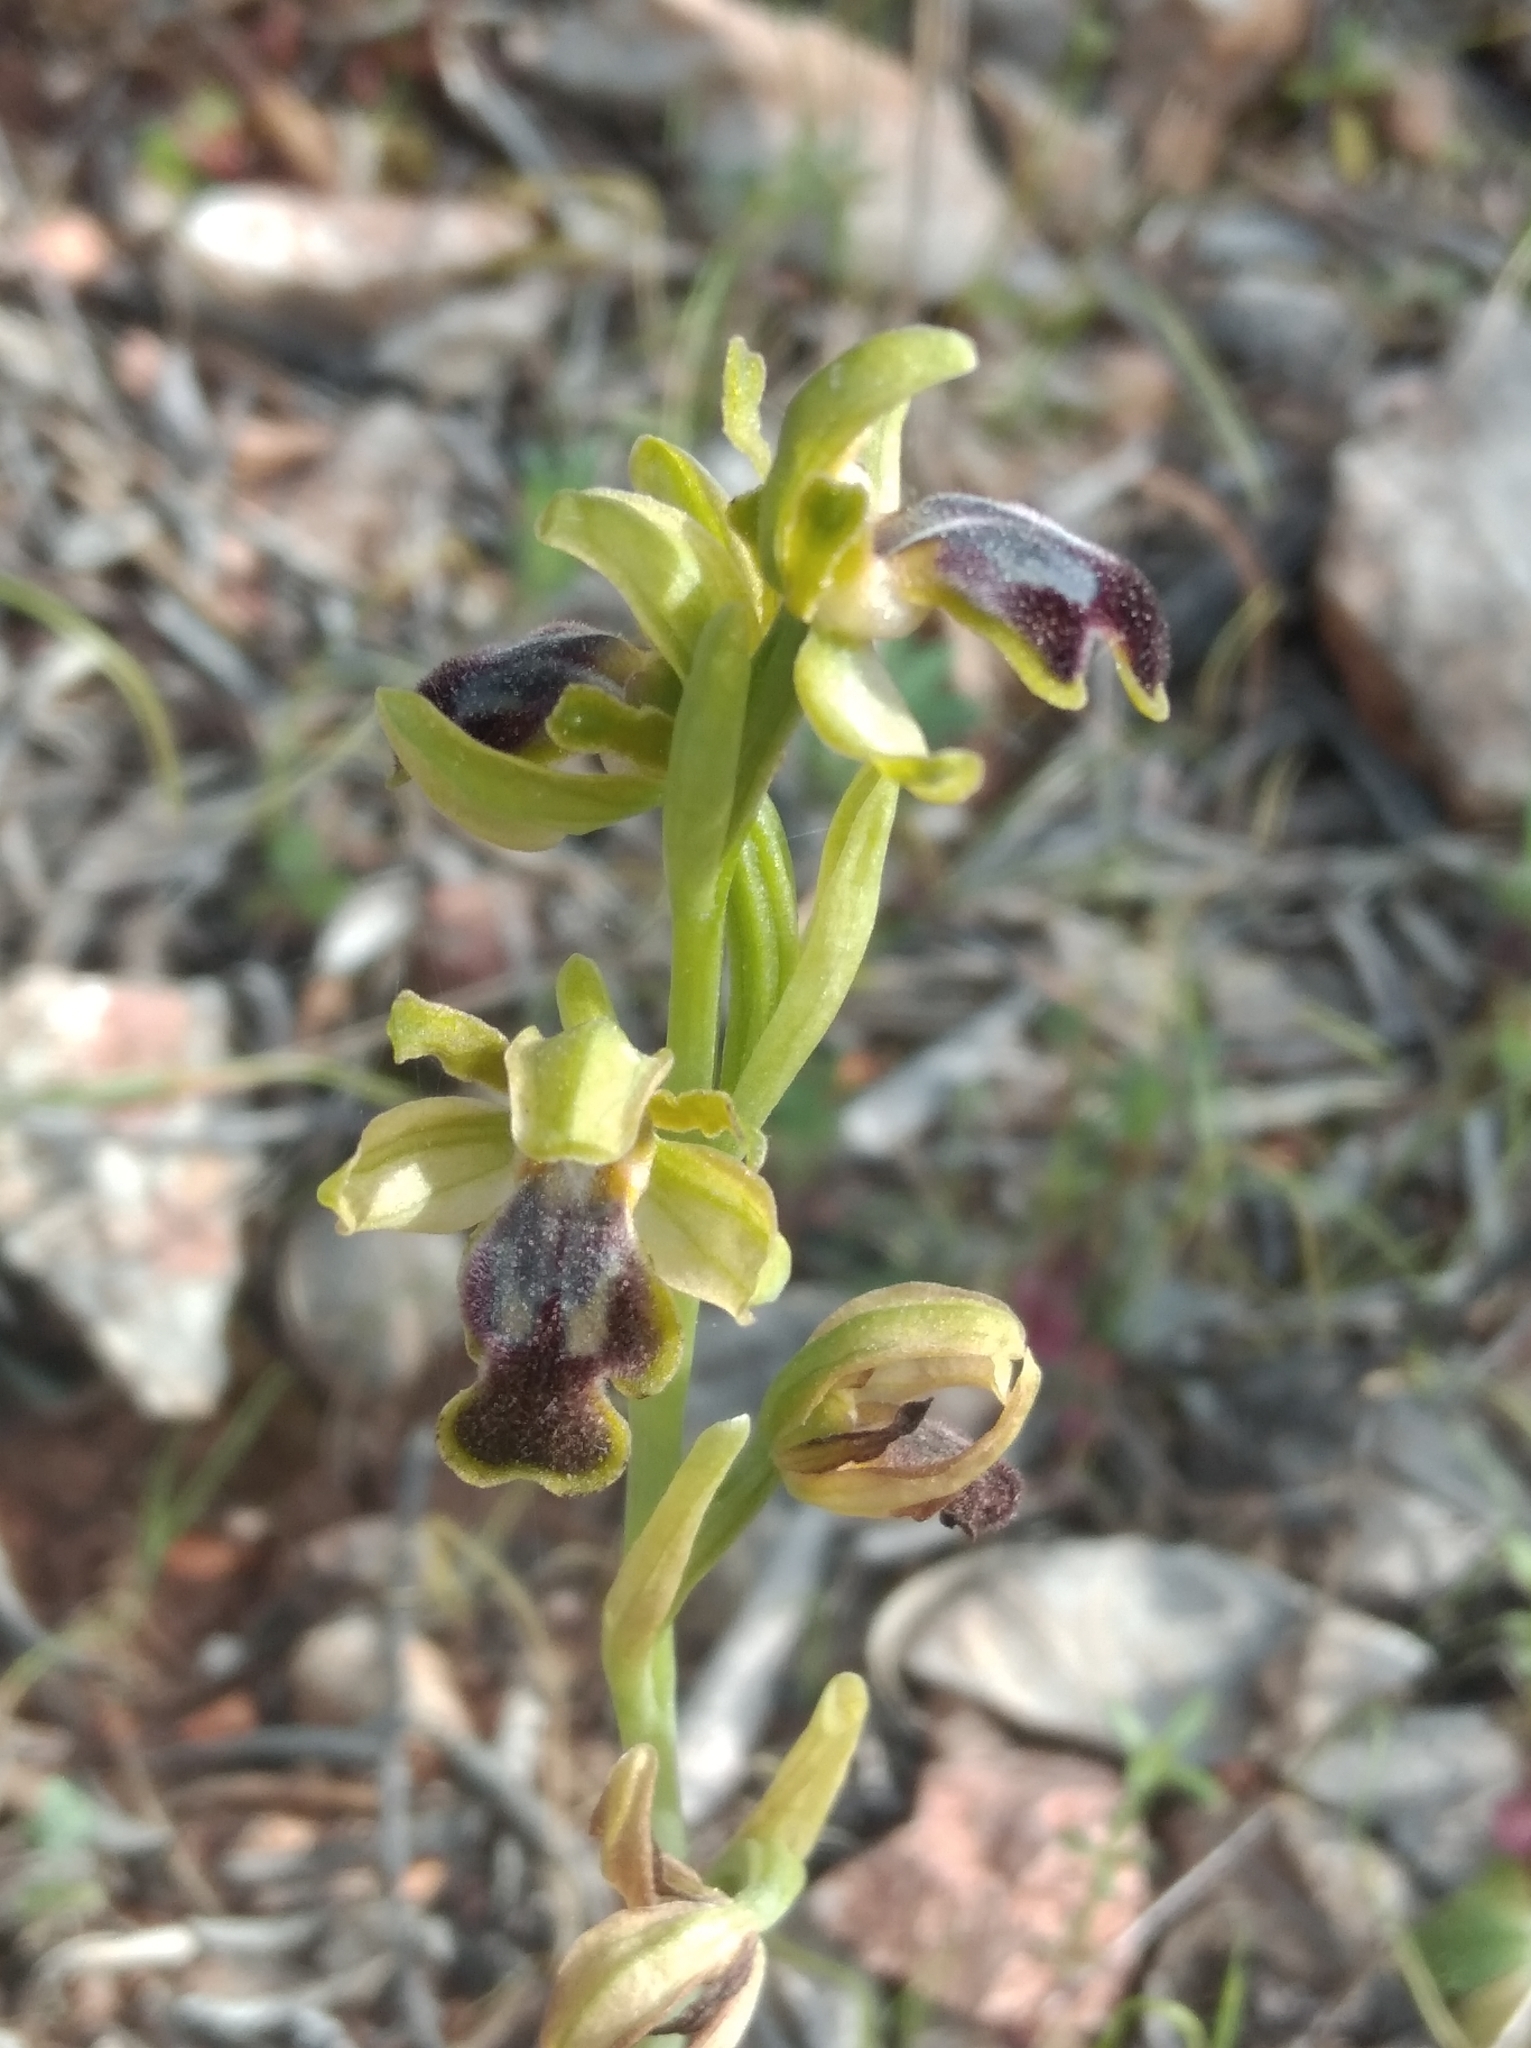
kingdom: Plantae
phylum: Tracheophyta
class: Liliopsida
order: Asparagales
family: Orchidaceae
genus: Ophrys
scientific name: Ophrys fusca
